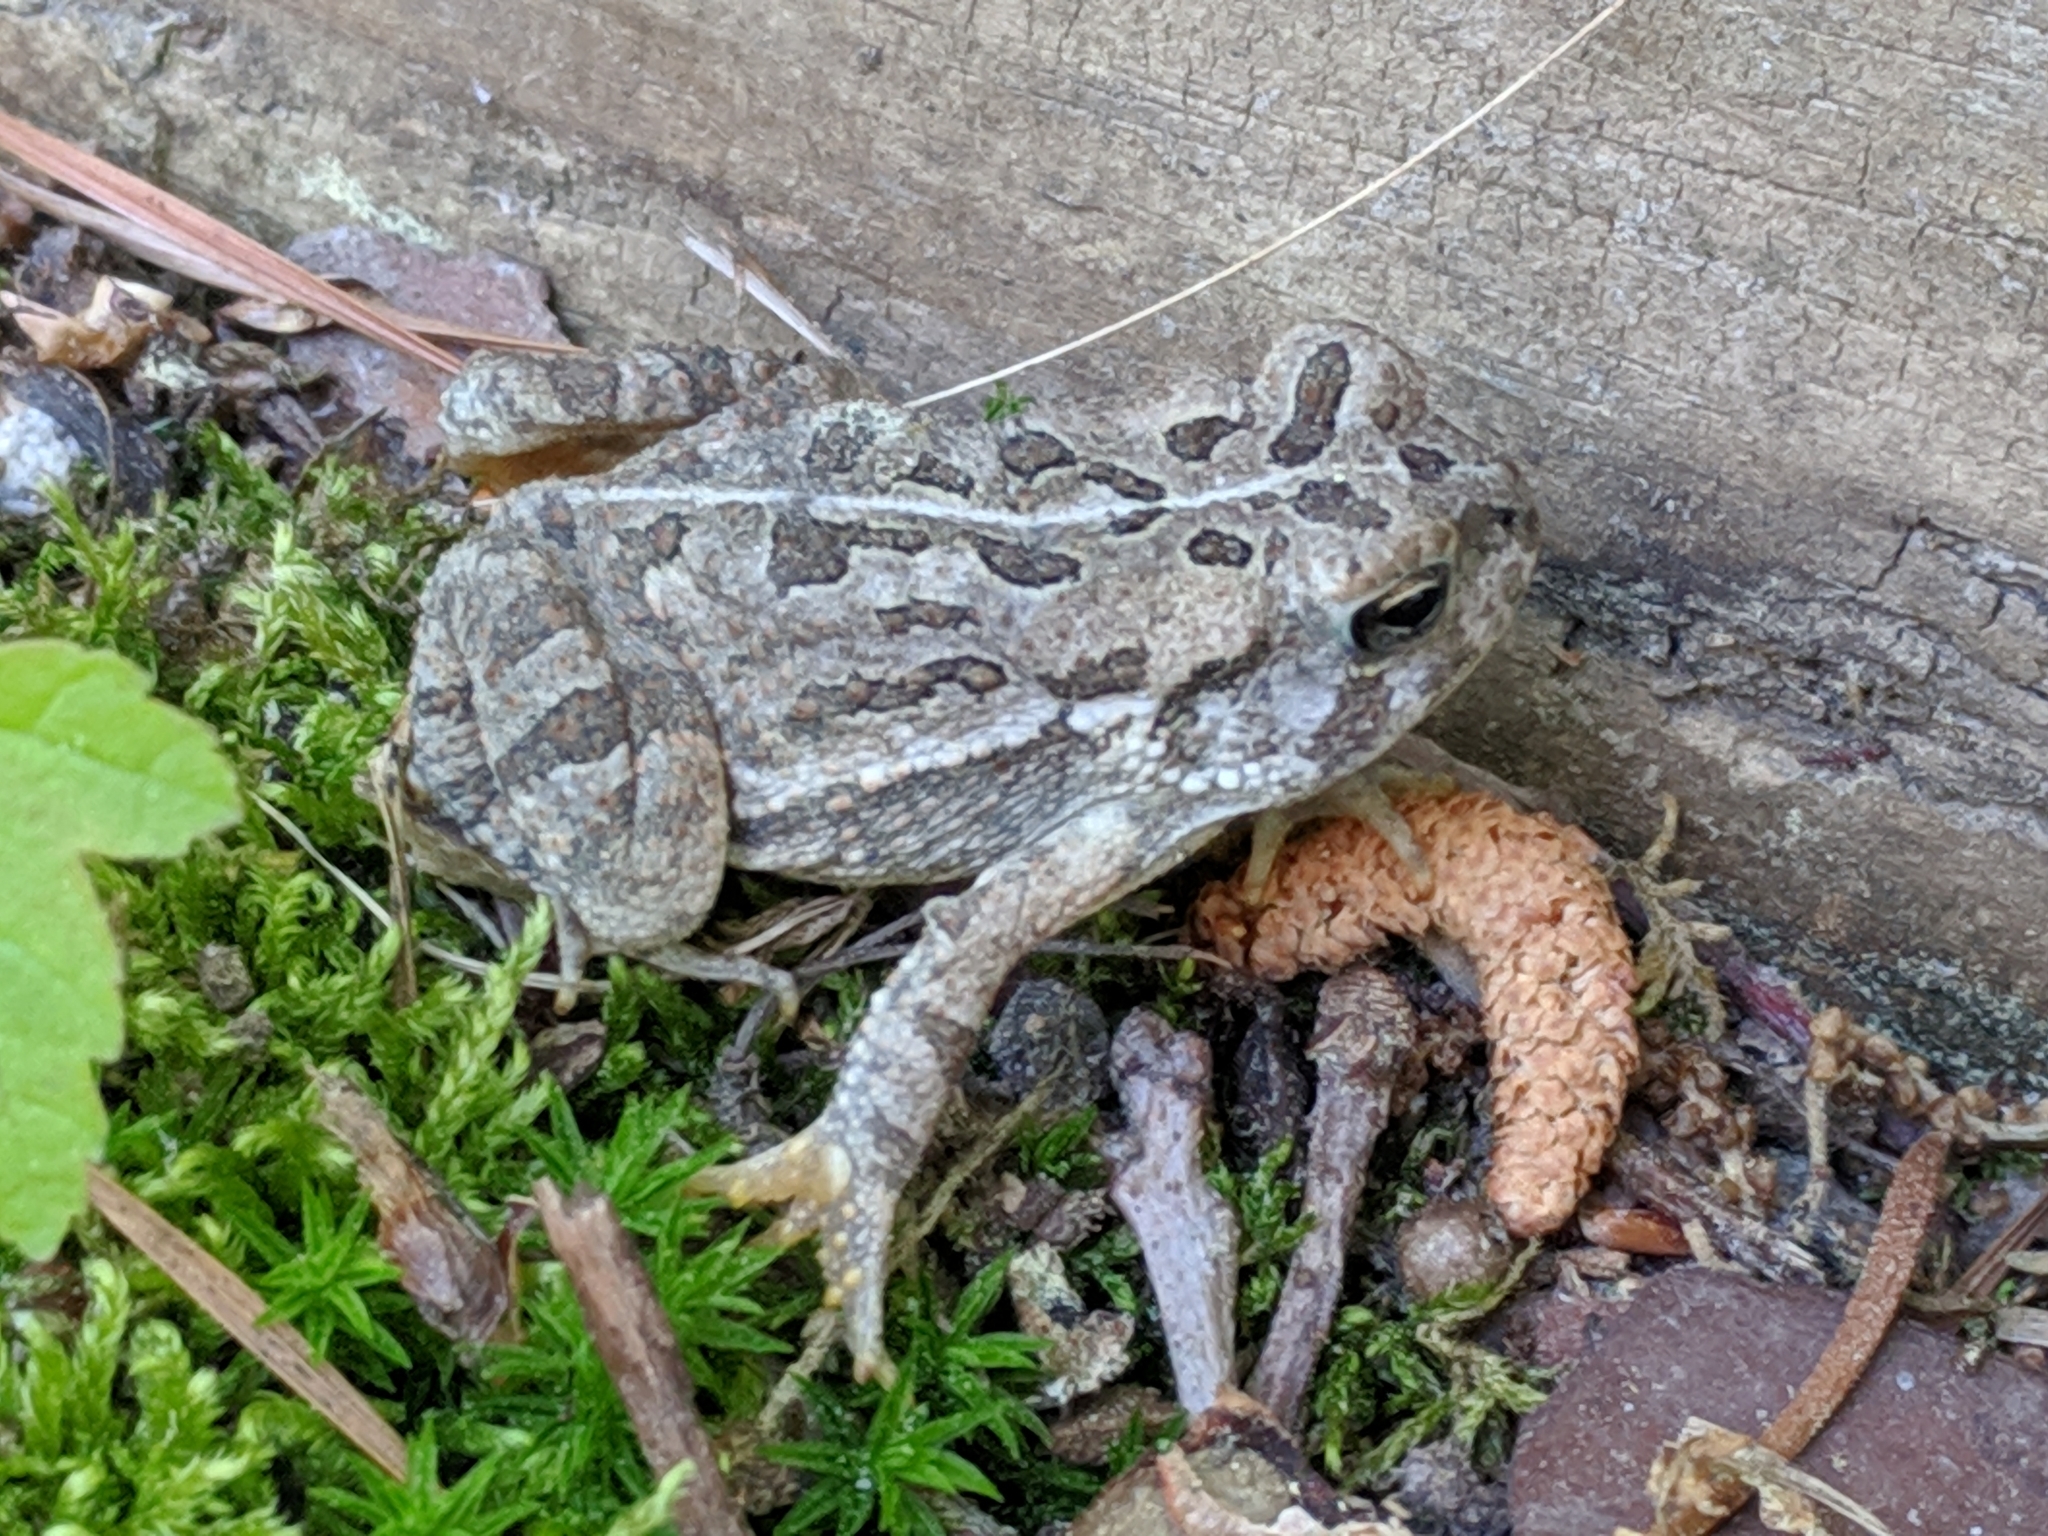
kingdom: Animalia
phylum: Chordata
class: Amphibia
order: Anura
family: Bufonidae
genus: Anaxyrus
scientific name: Anaxyrus fowleri
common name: Fowler's toad
